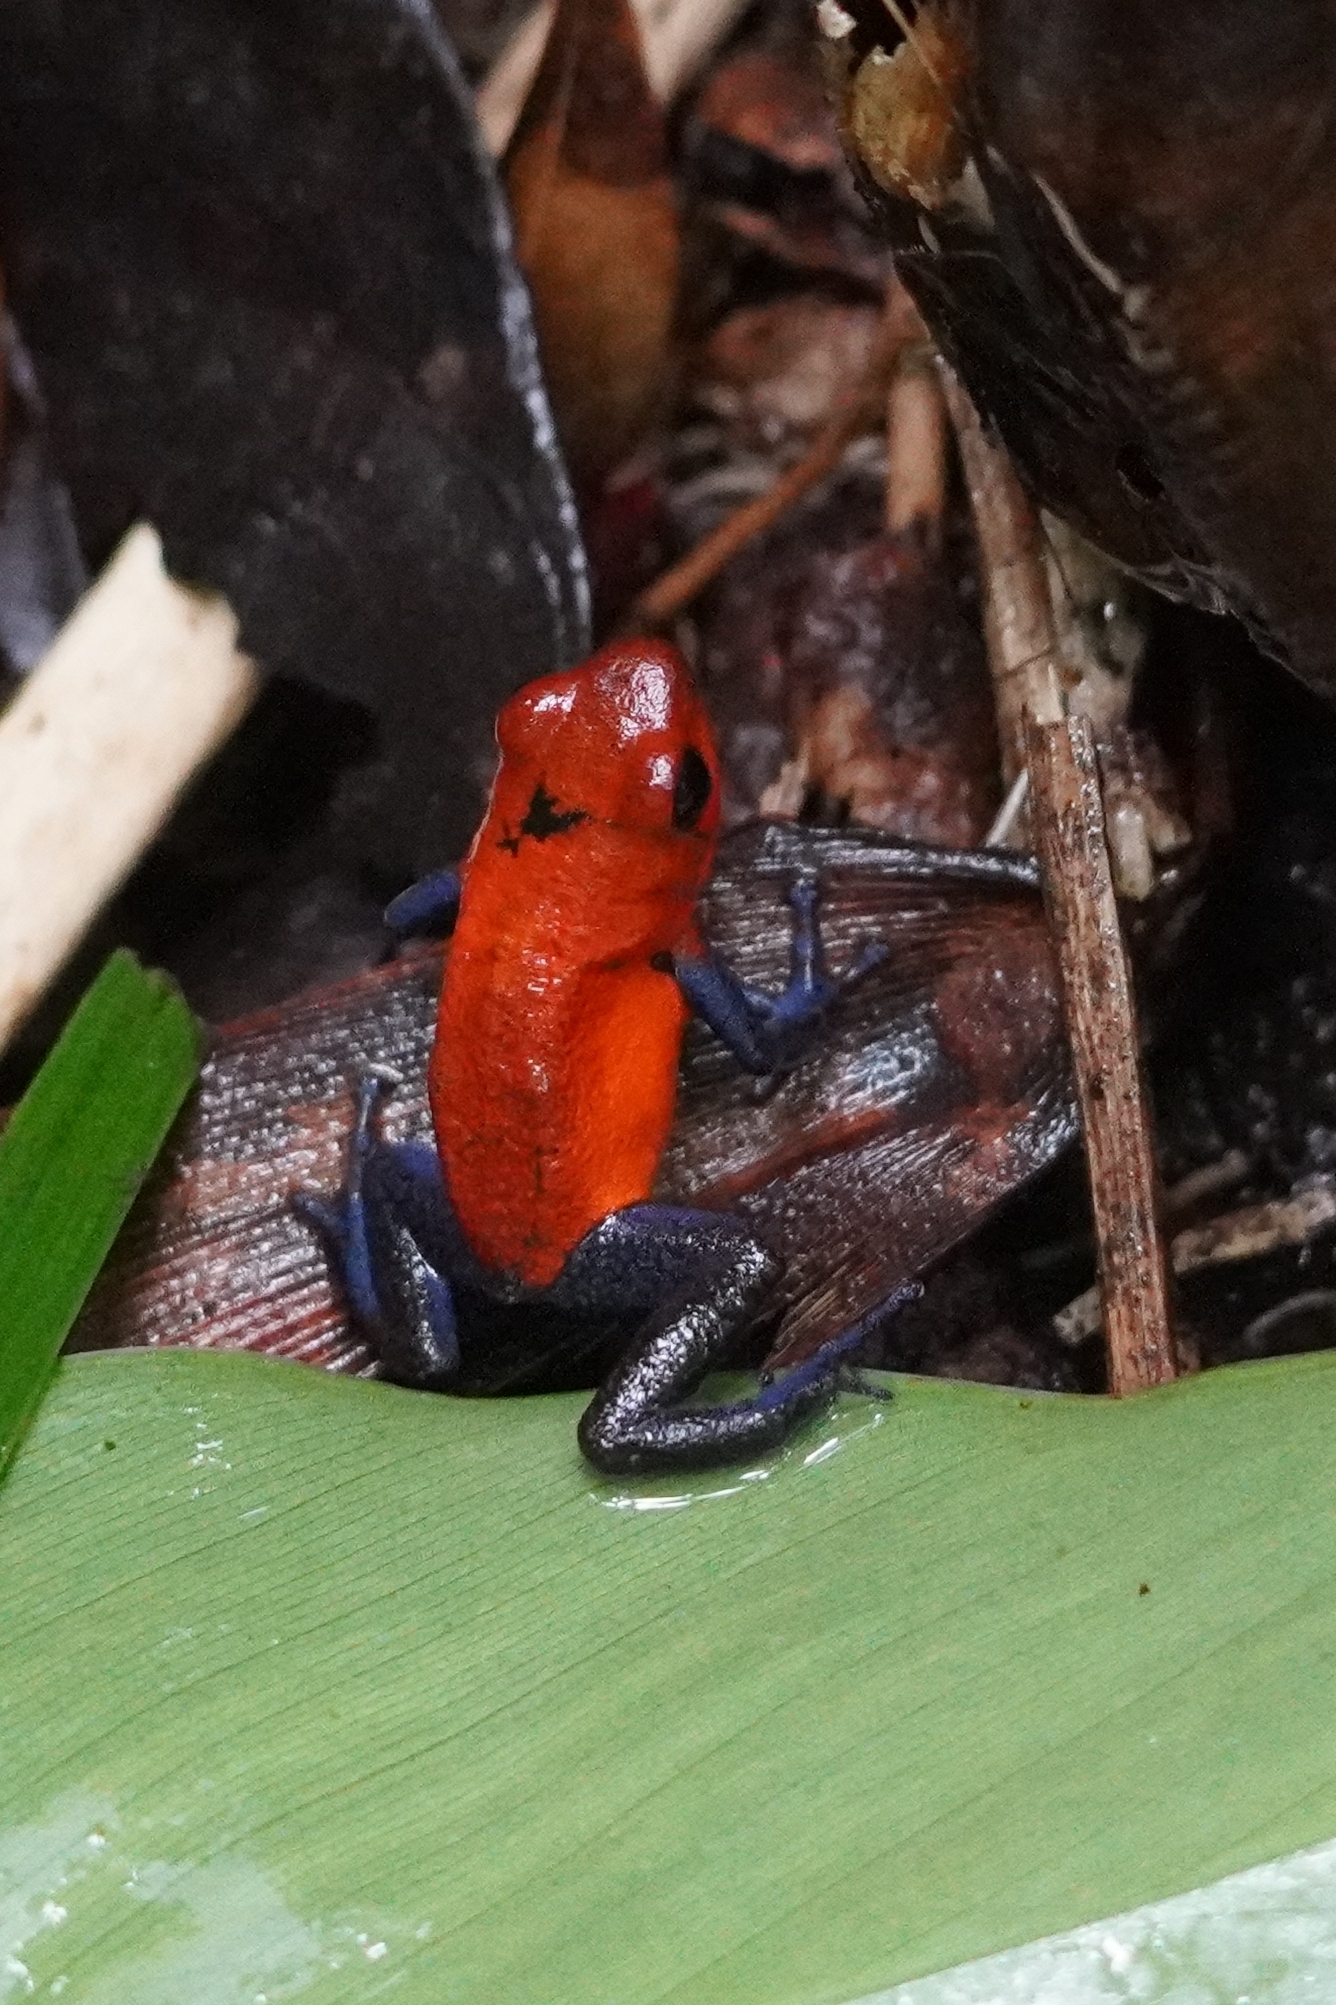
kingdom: Animalia
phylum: Chordata
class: Amphibia
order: Anura
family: Dendrobatidae
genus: Oophaga
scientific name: Oophaga pumilio
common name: Flaming poison frog
